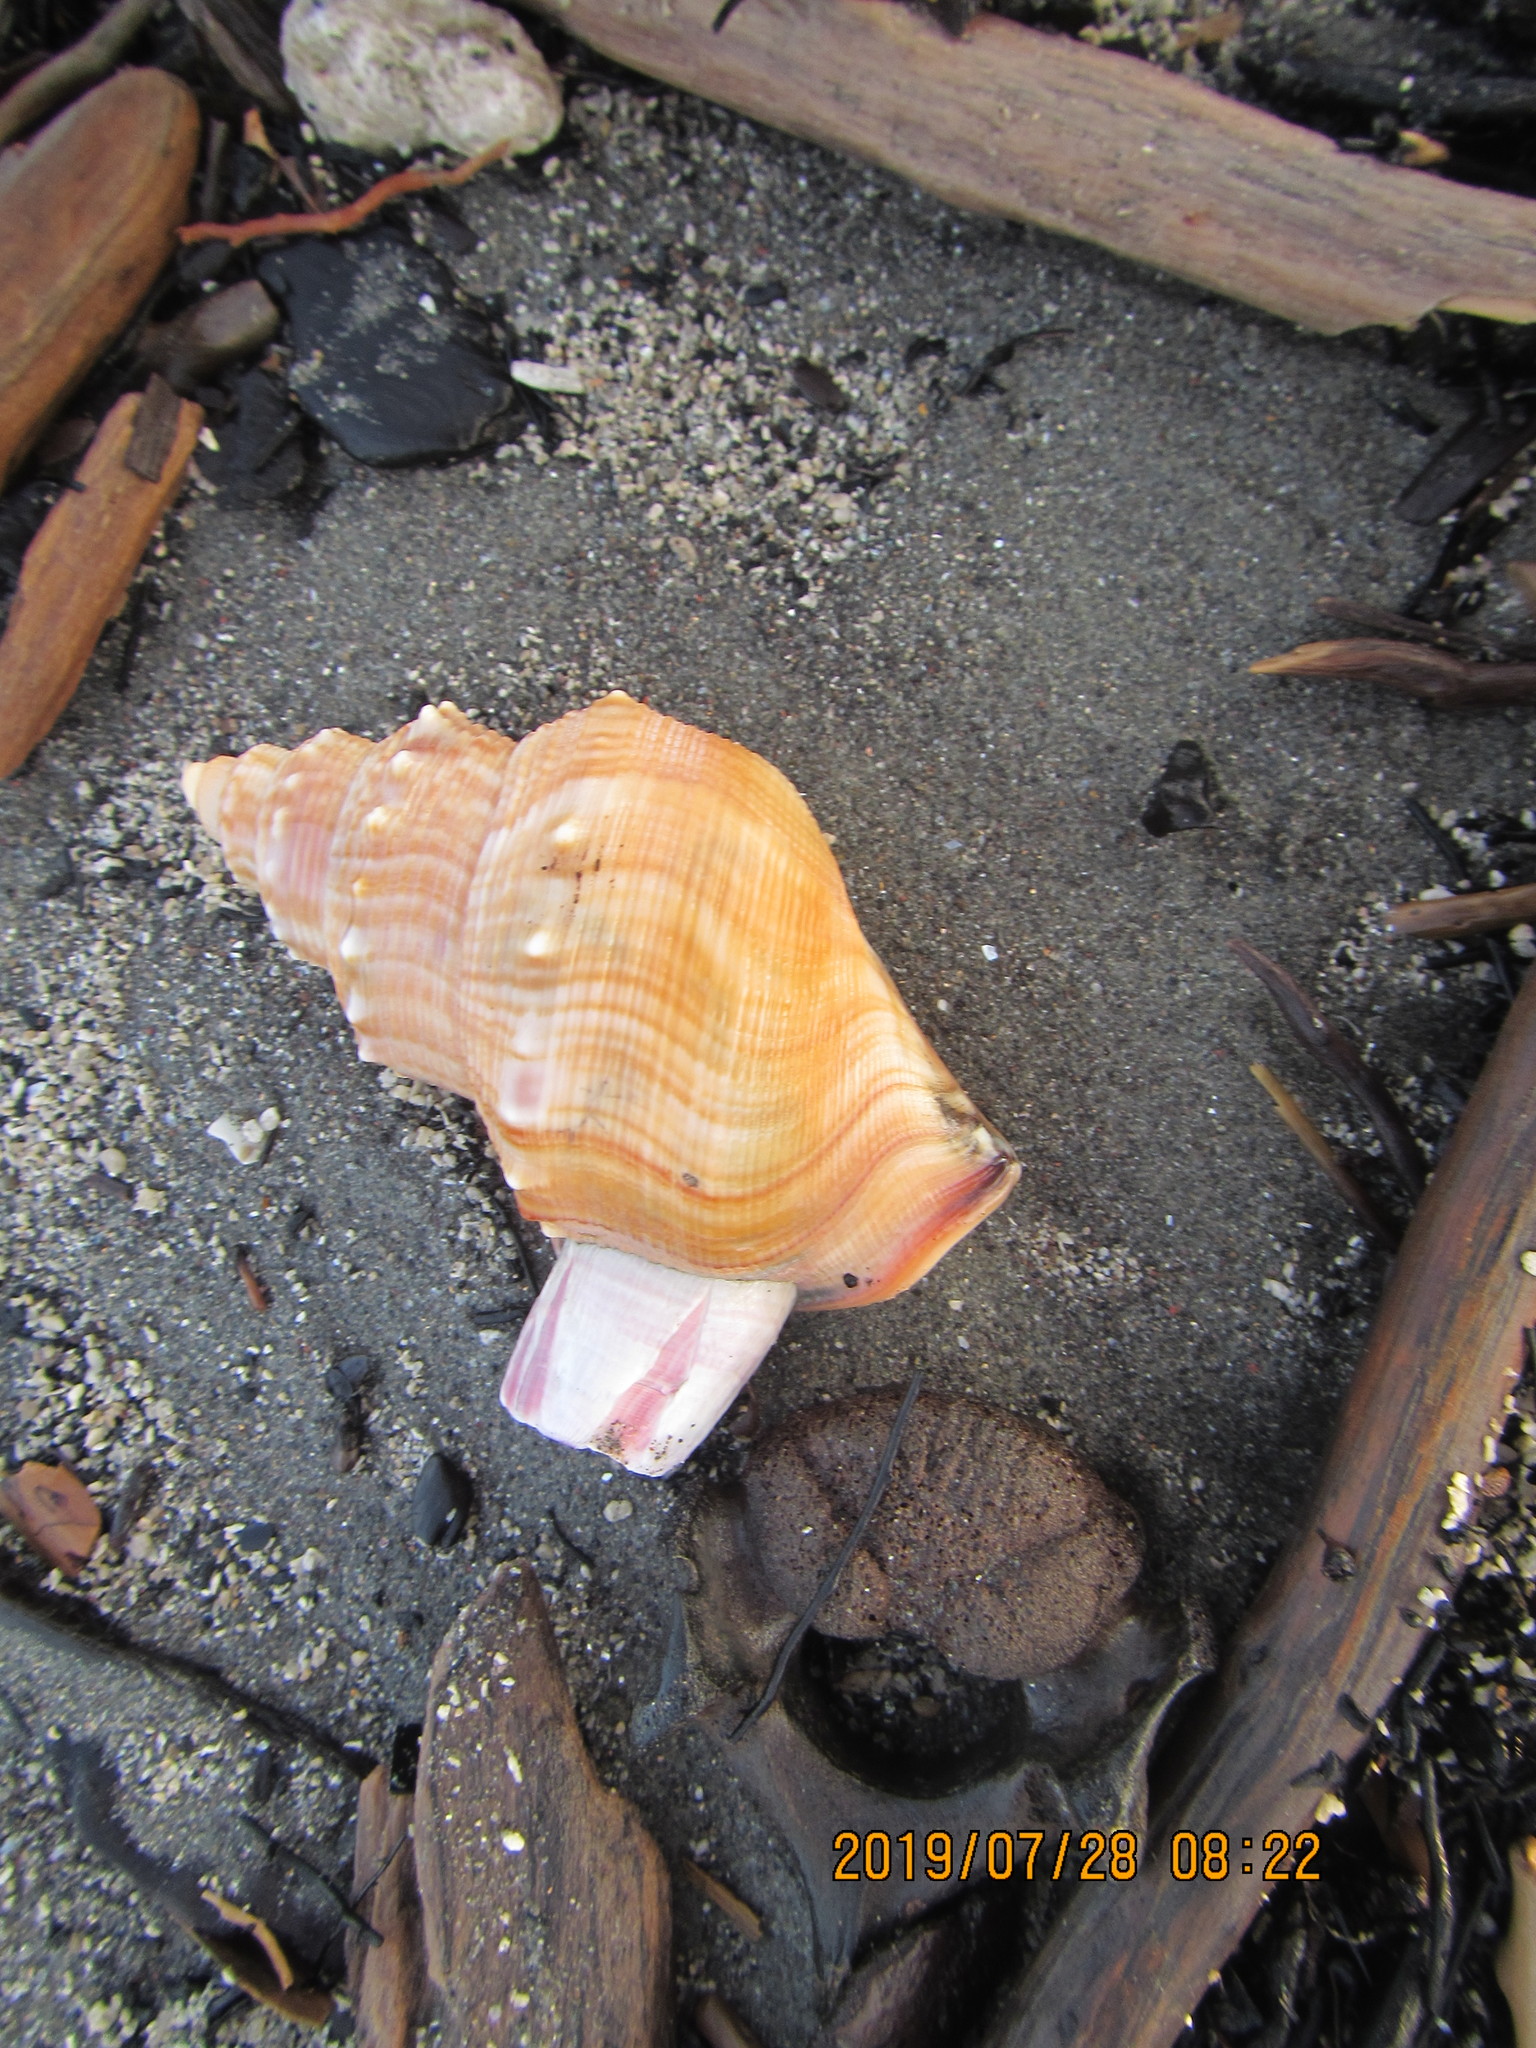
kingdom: Animalia
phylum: Mollusca
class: Gastropoda
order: Littorinimorpha
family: Struthiolariidae
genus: Struthiolaria
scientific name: Struthiolaria papulosa
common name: Large ostrich foot
